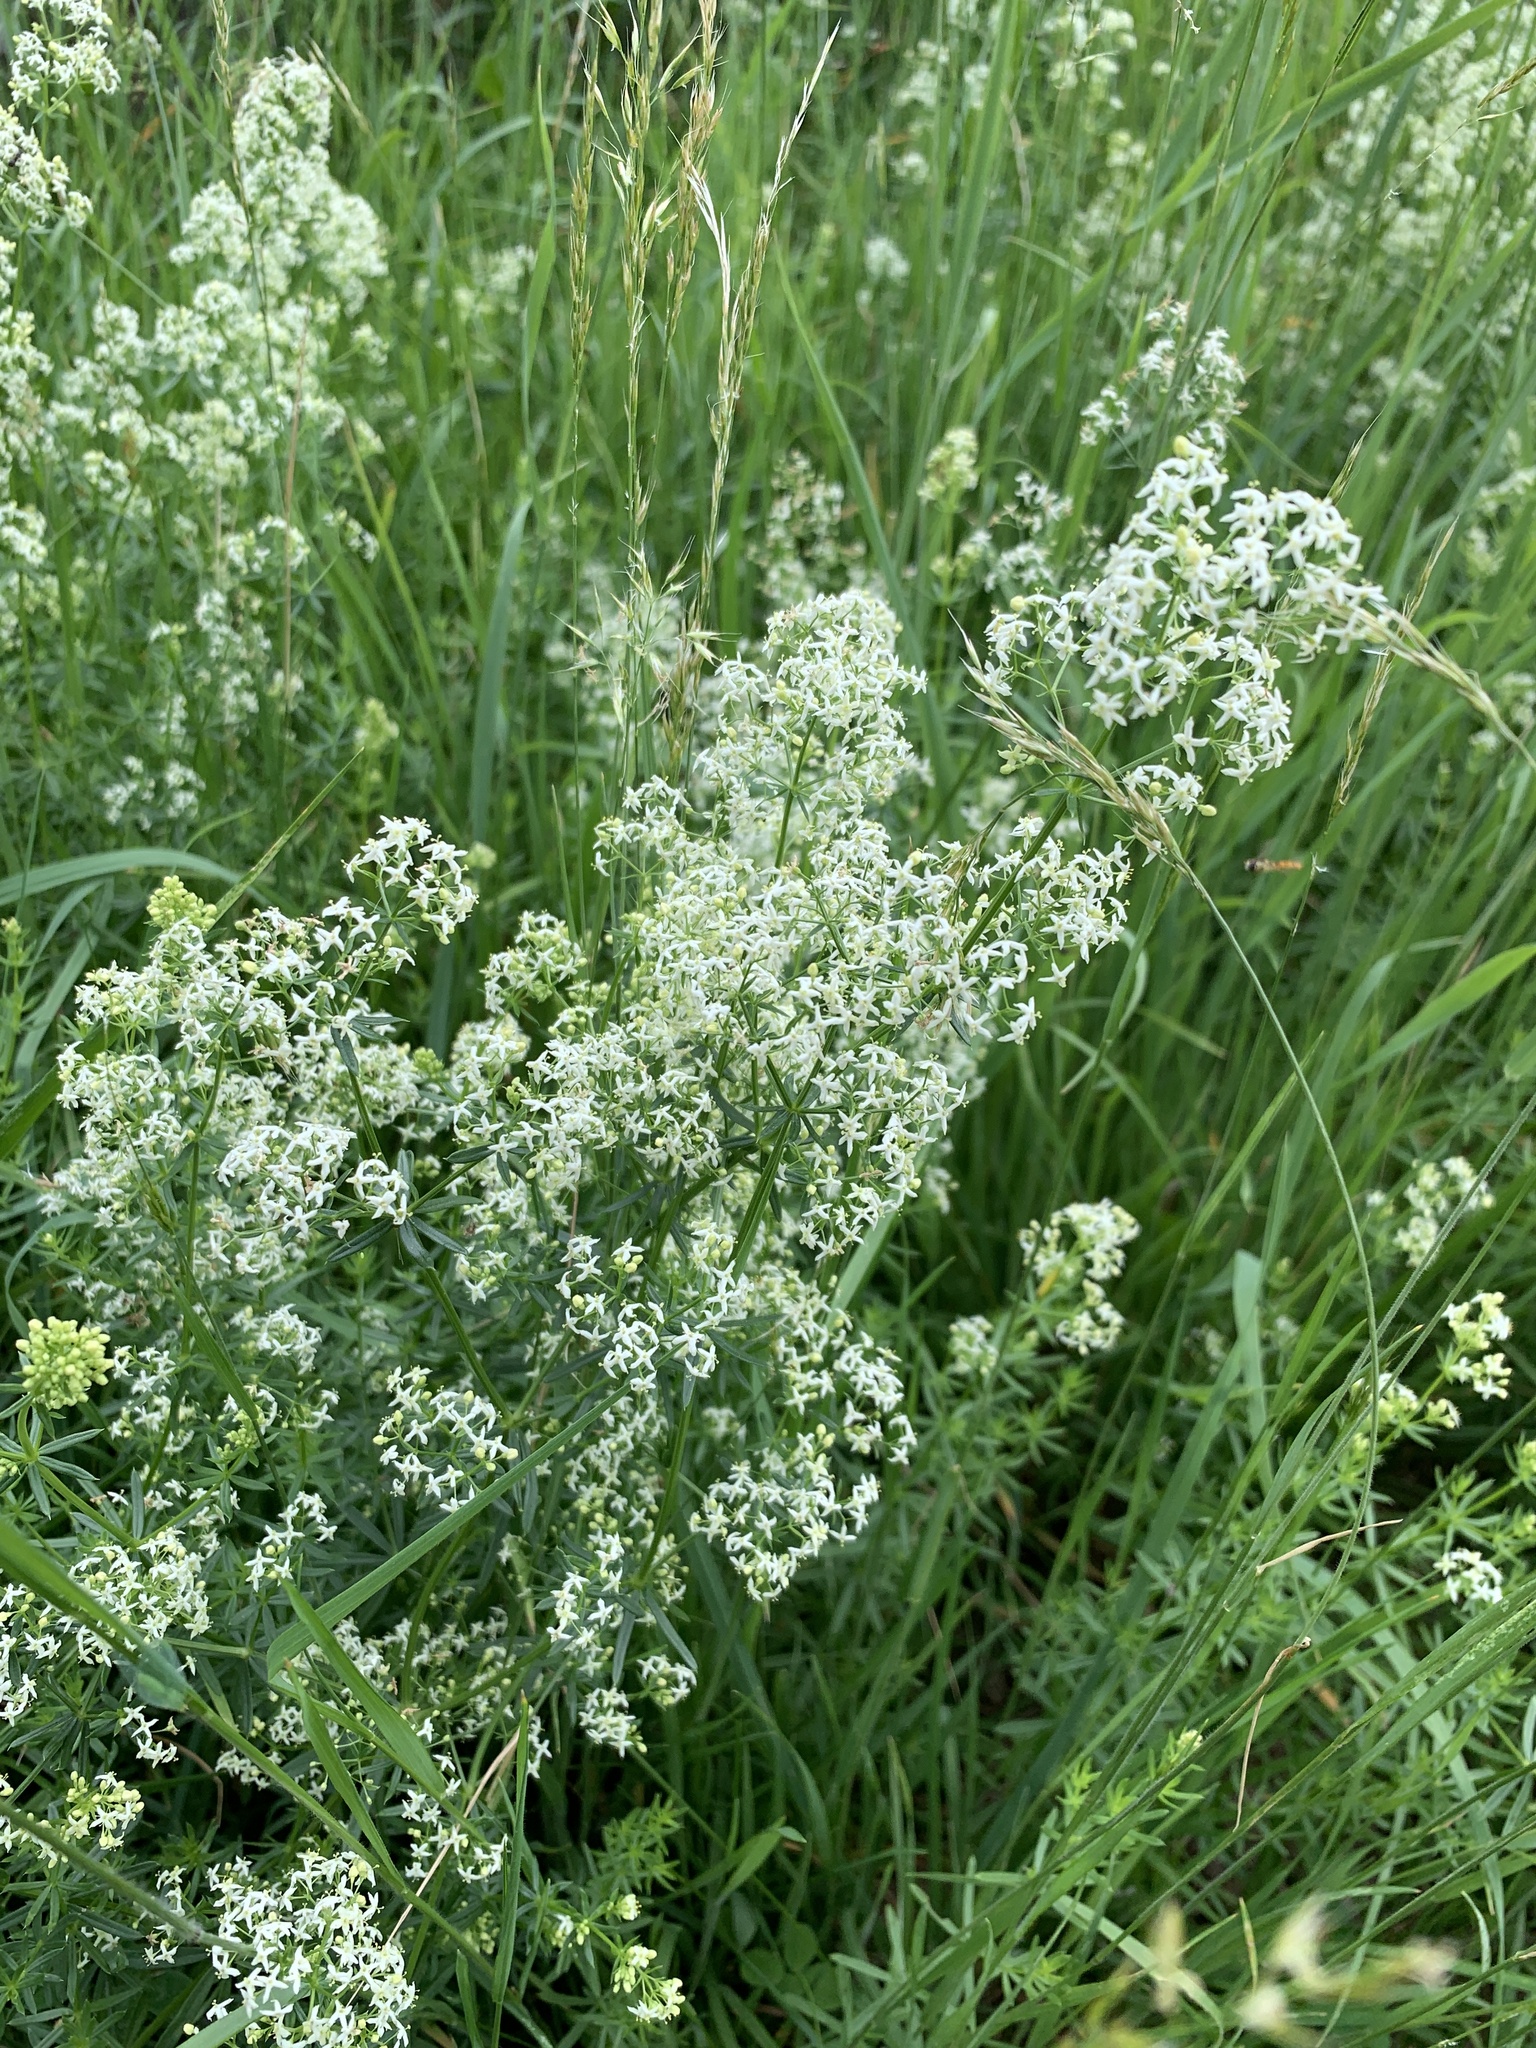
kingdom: Plantae
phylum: Tracheophyta
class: Magnoliopsida
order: Gentianales
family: Rubiaceae
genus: Galium
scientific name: Galium album
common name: White bedstraw
